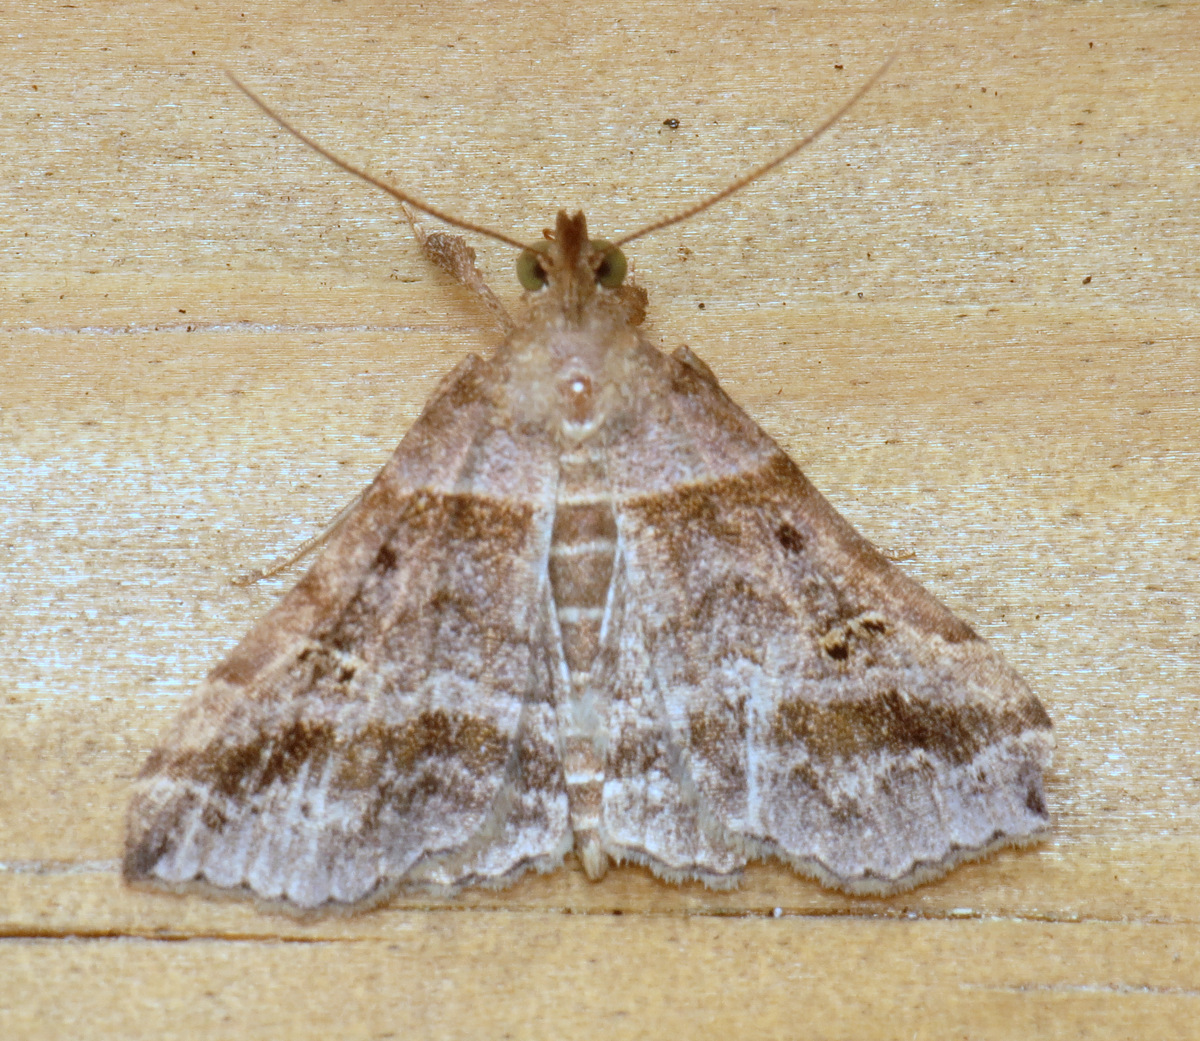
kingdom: Animalia
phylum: Arthropoda
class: Insecta
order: Lepidoptera
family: Erebidae
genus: Phaeolita
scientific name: Phaeolita pyramusalis
